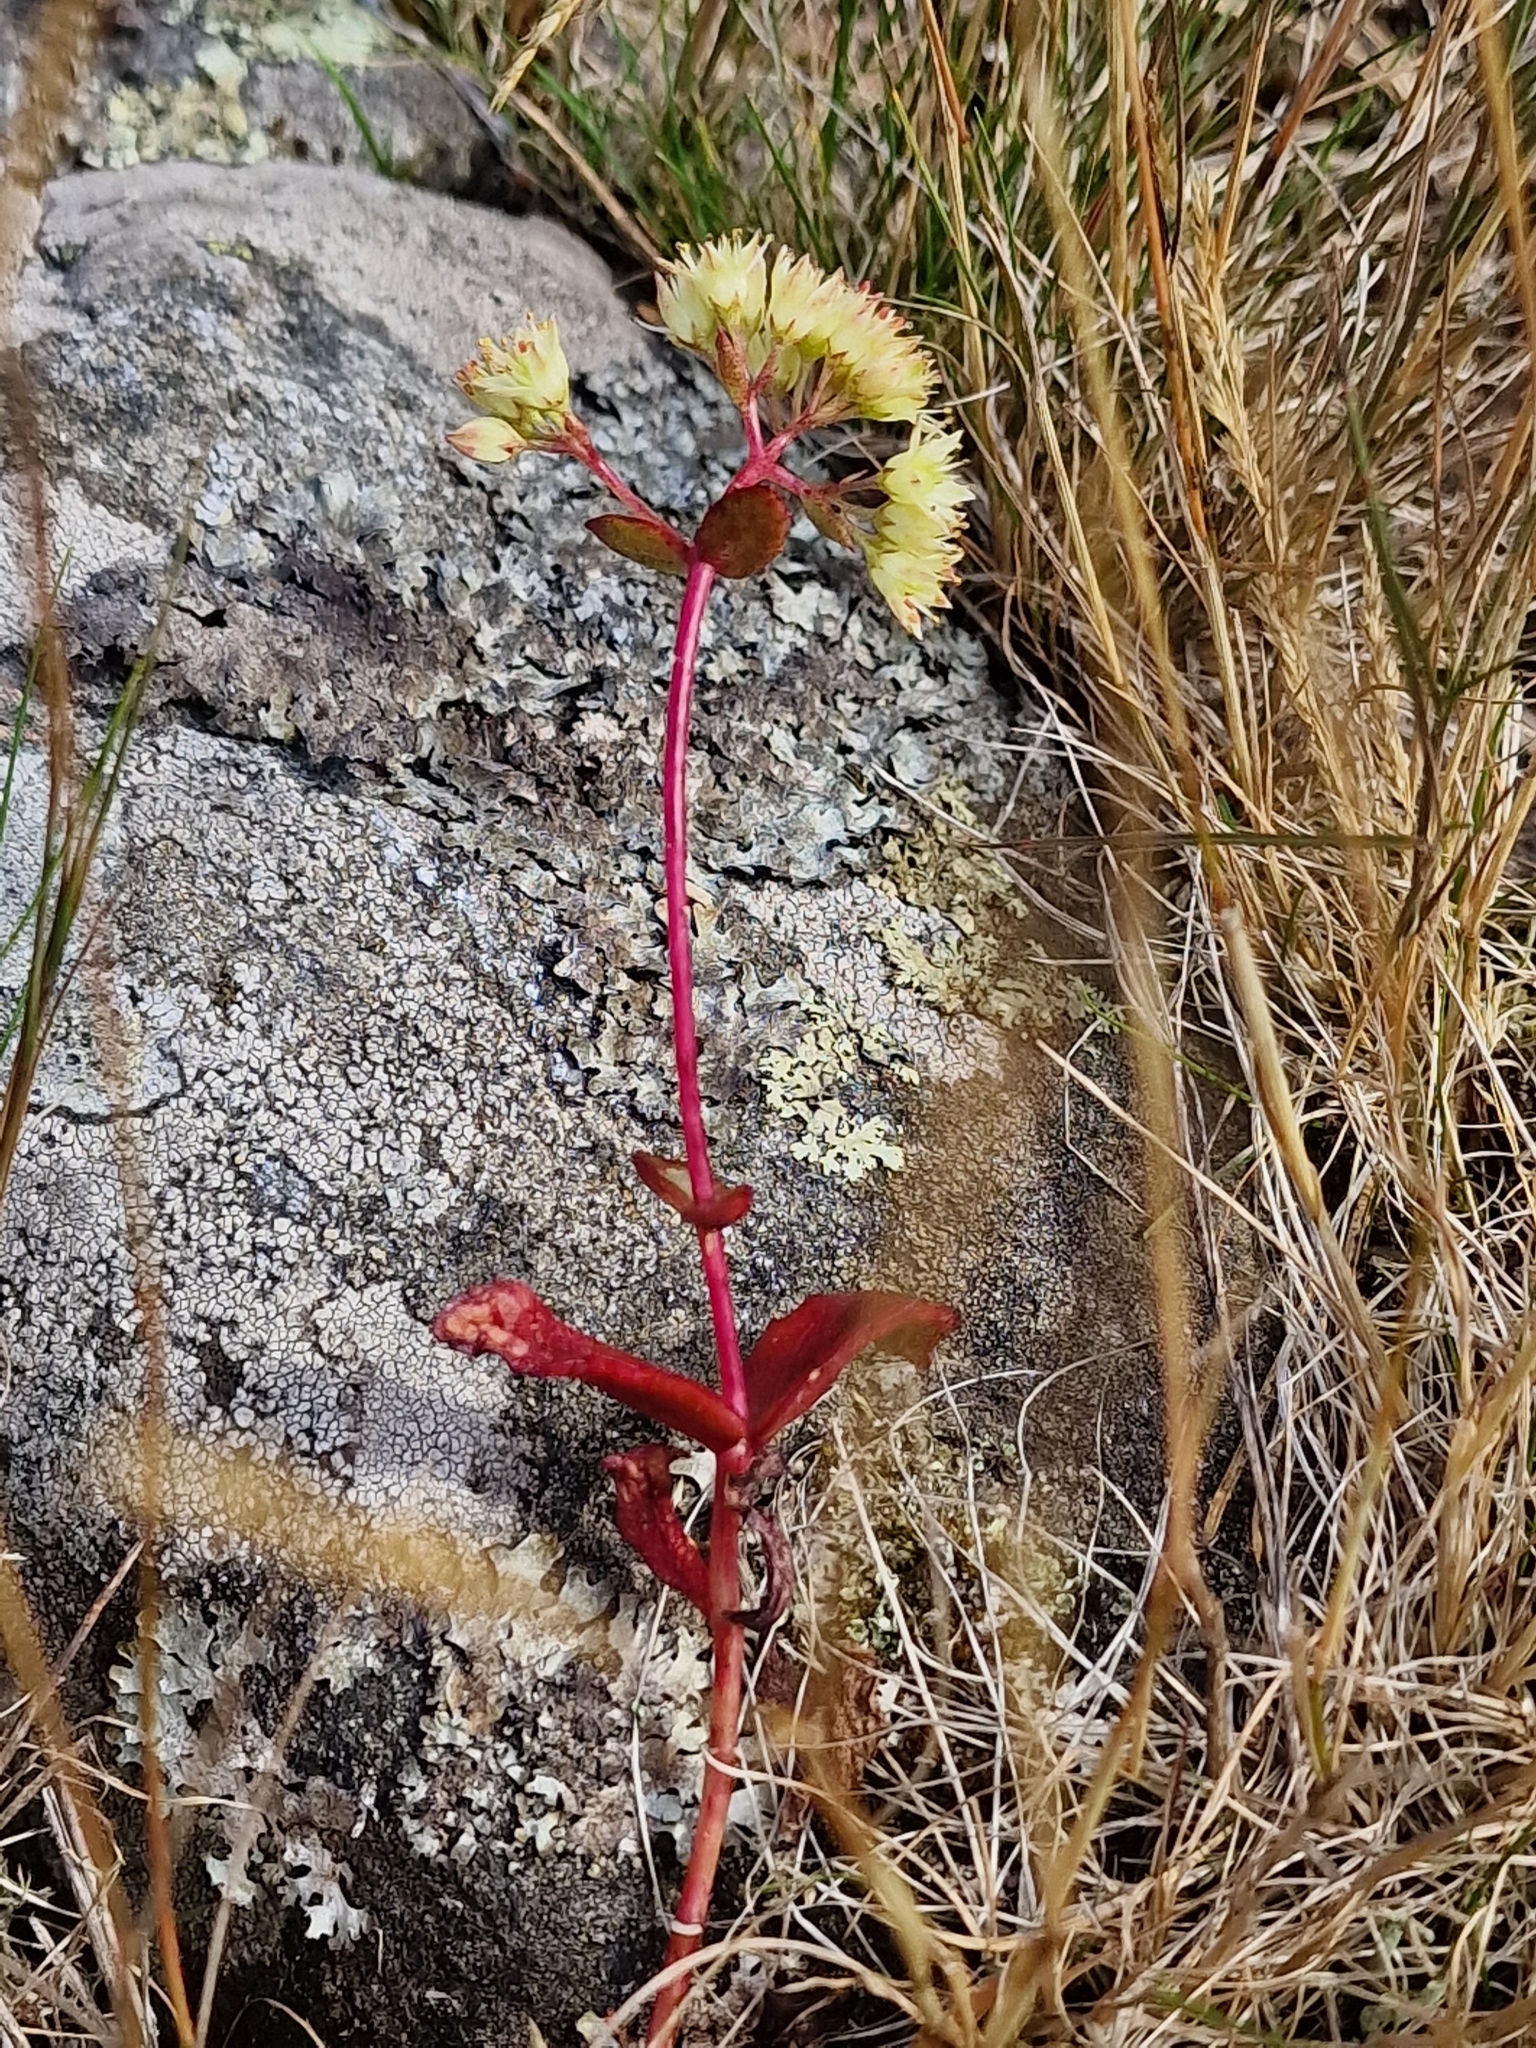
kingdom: Plantae
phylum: Tracheophyta
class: Magnoliopsida
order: Saxifragales
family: Crassulaceae
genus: Hylotelephium
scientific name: Hylotelephium maximum
